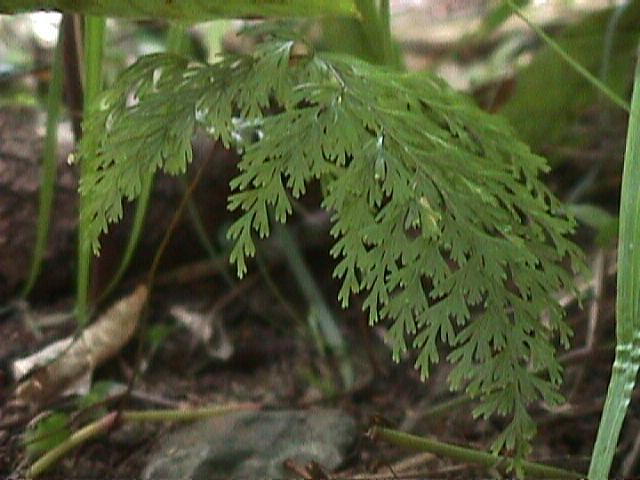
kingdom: Plantae
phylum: Tracheophyta
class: Polypodiopsida
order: Hymenophyllales
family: Hymenophyllaceae
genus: Hymenophyllum
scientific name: Hymenophyllum demissum
